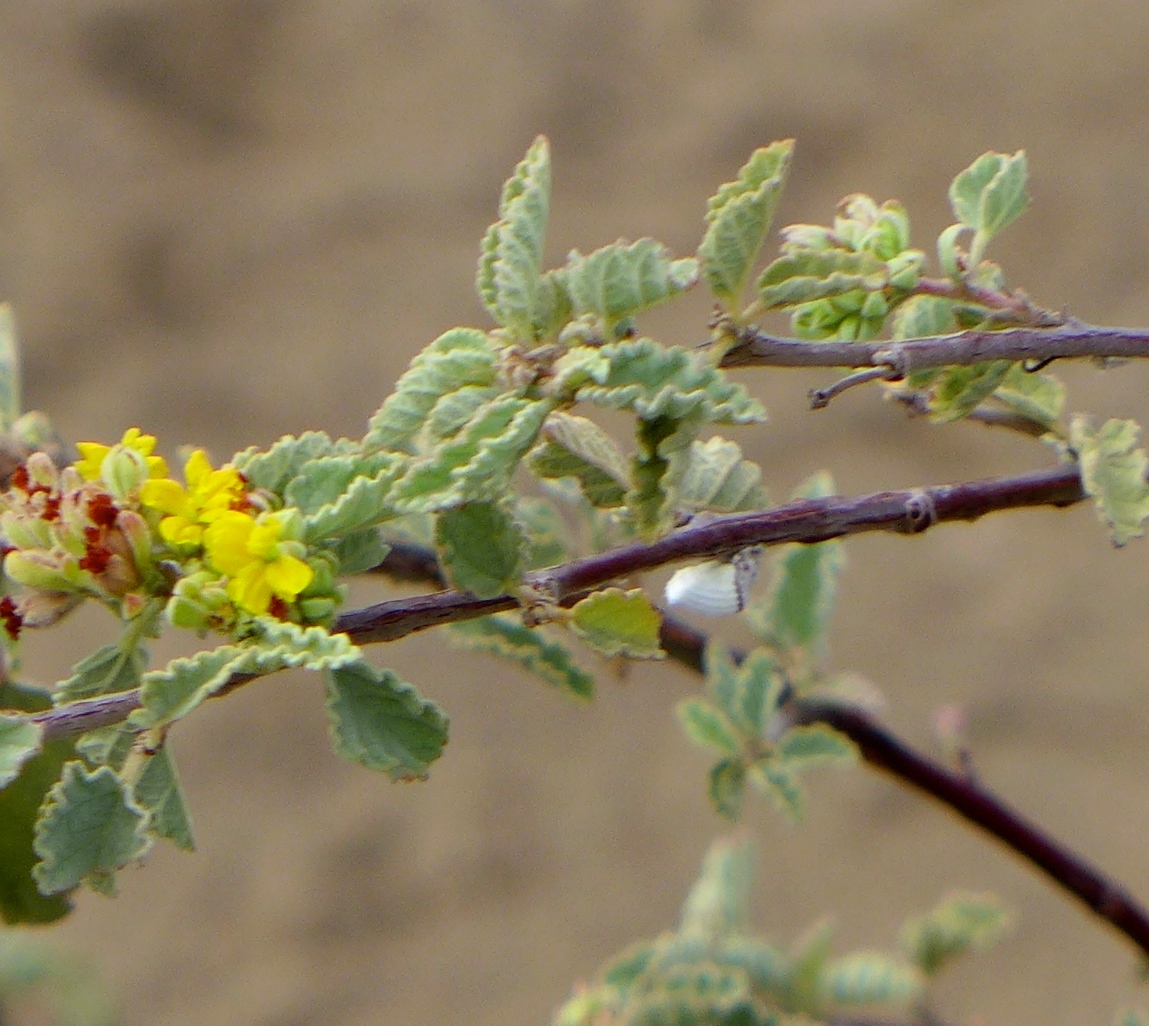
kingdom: Animalia
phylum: Arthropoda
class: Insecta
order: Hemiptera
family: Margarodidae
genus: Icerya
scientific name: Icerya purchasi
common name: Cottony cushion scale
